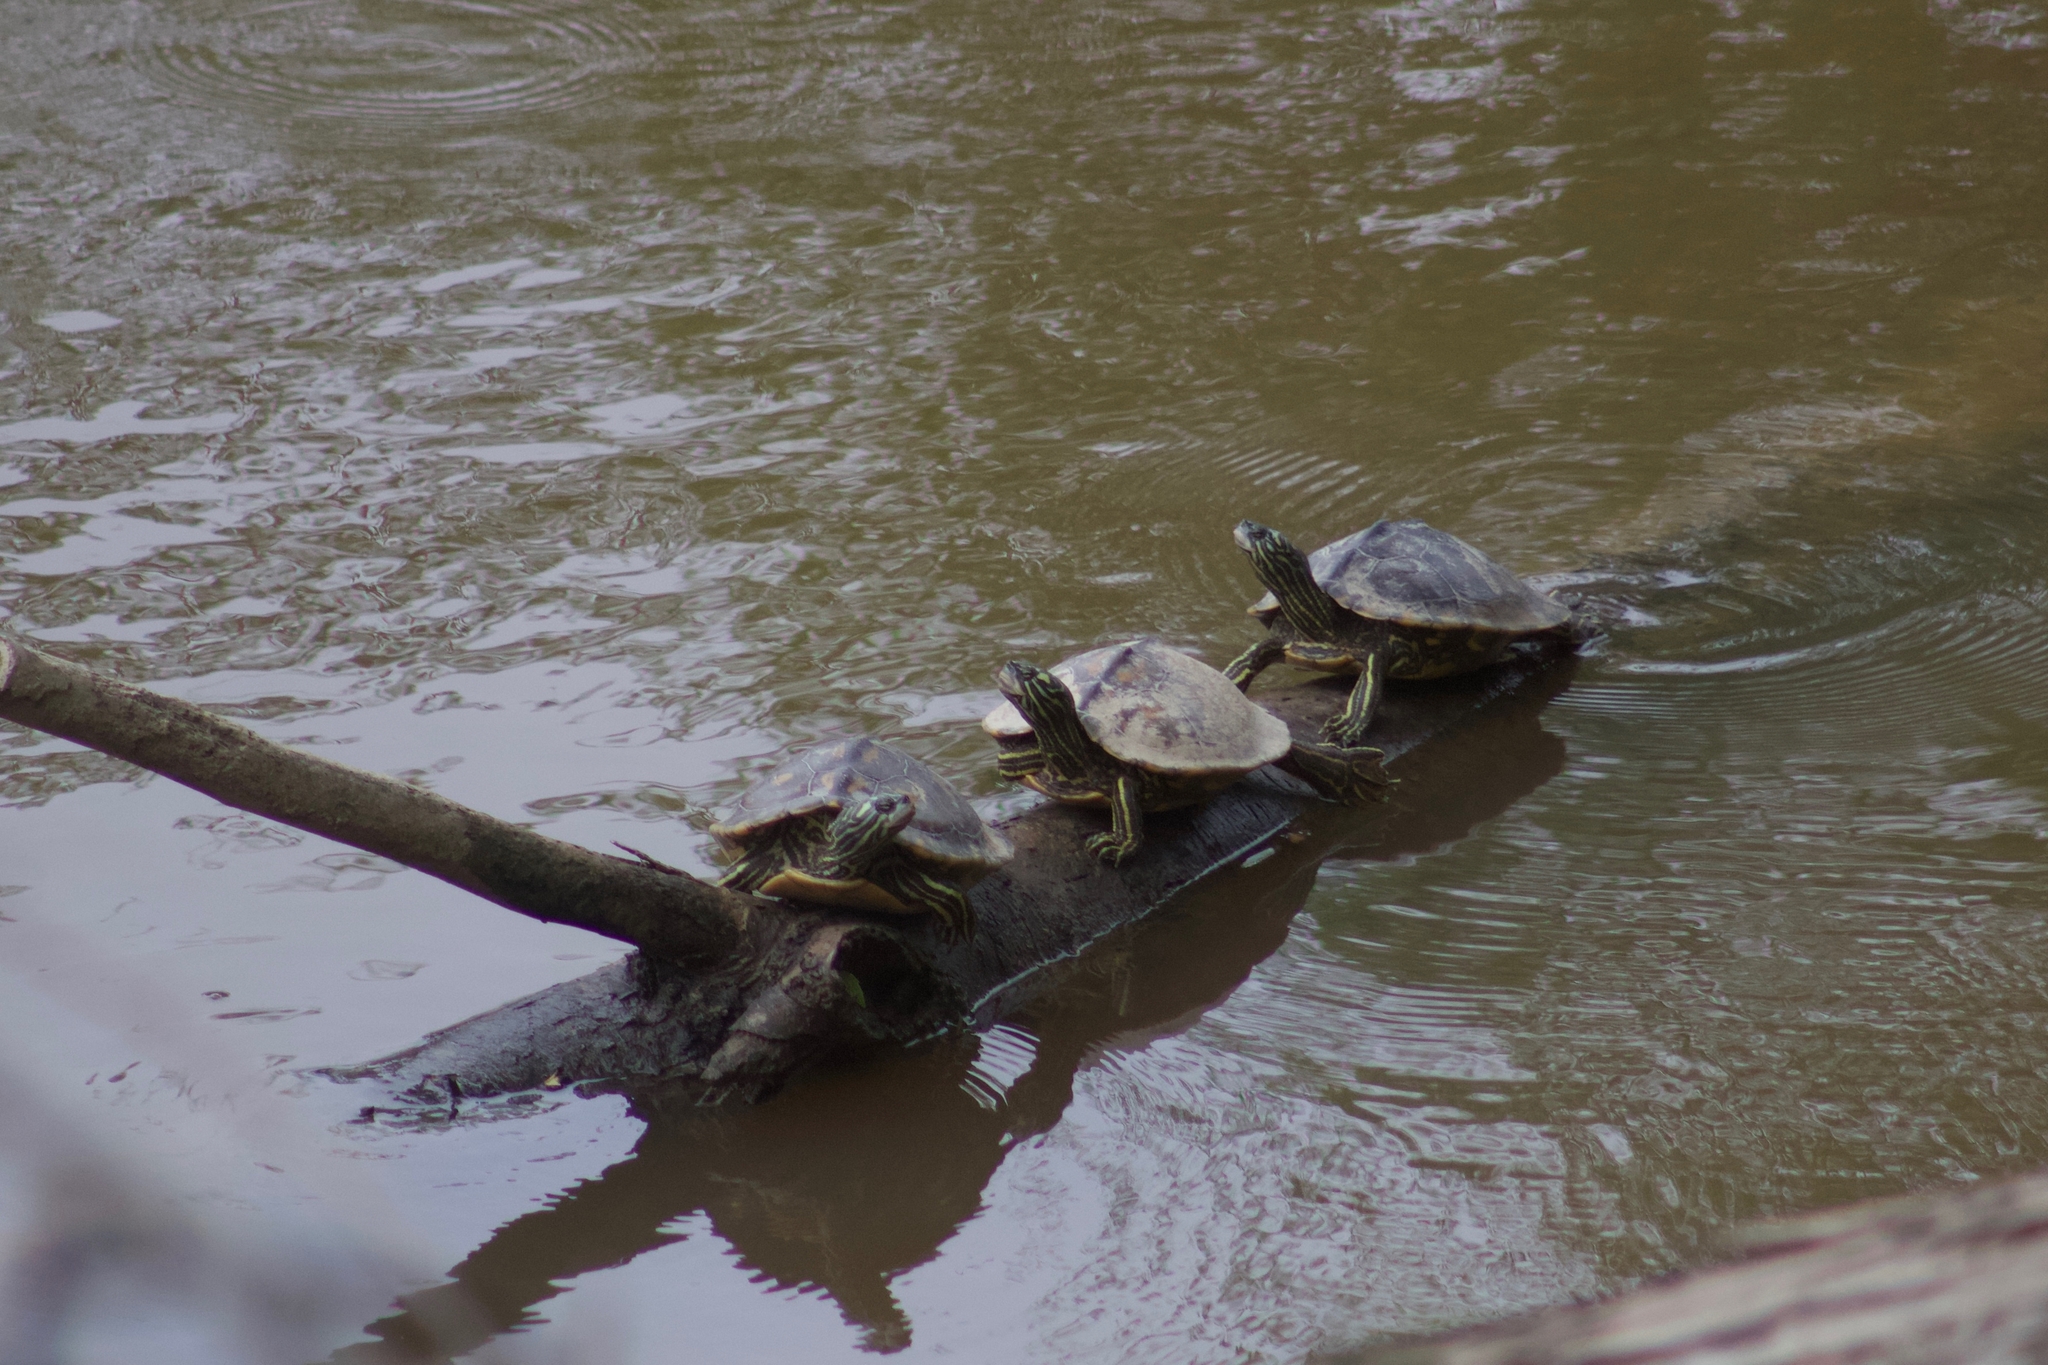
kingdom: Animalia
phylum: Chordata
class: Testudines
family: Emydidae
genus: Graptemys
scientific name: Graptemys flavimaculata
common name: Yellow-blotched map turtle
